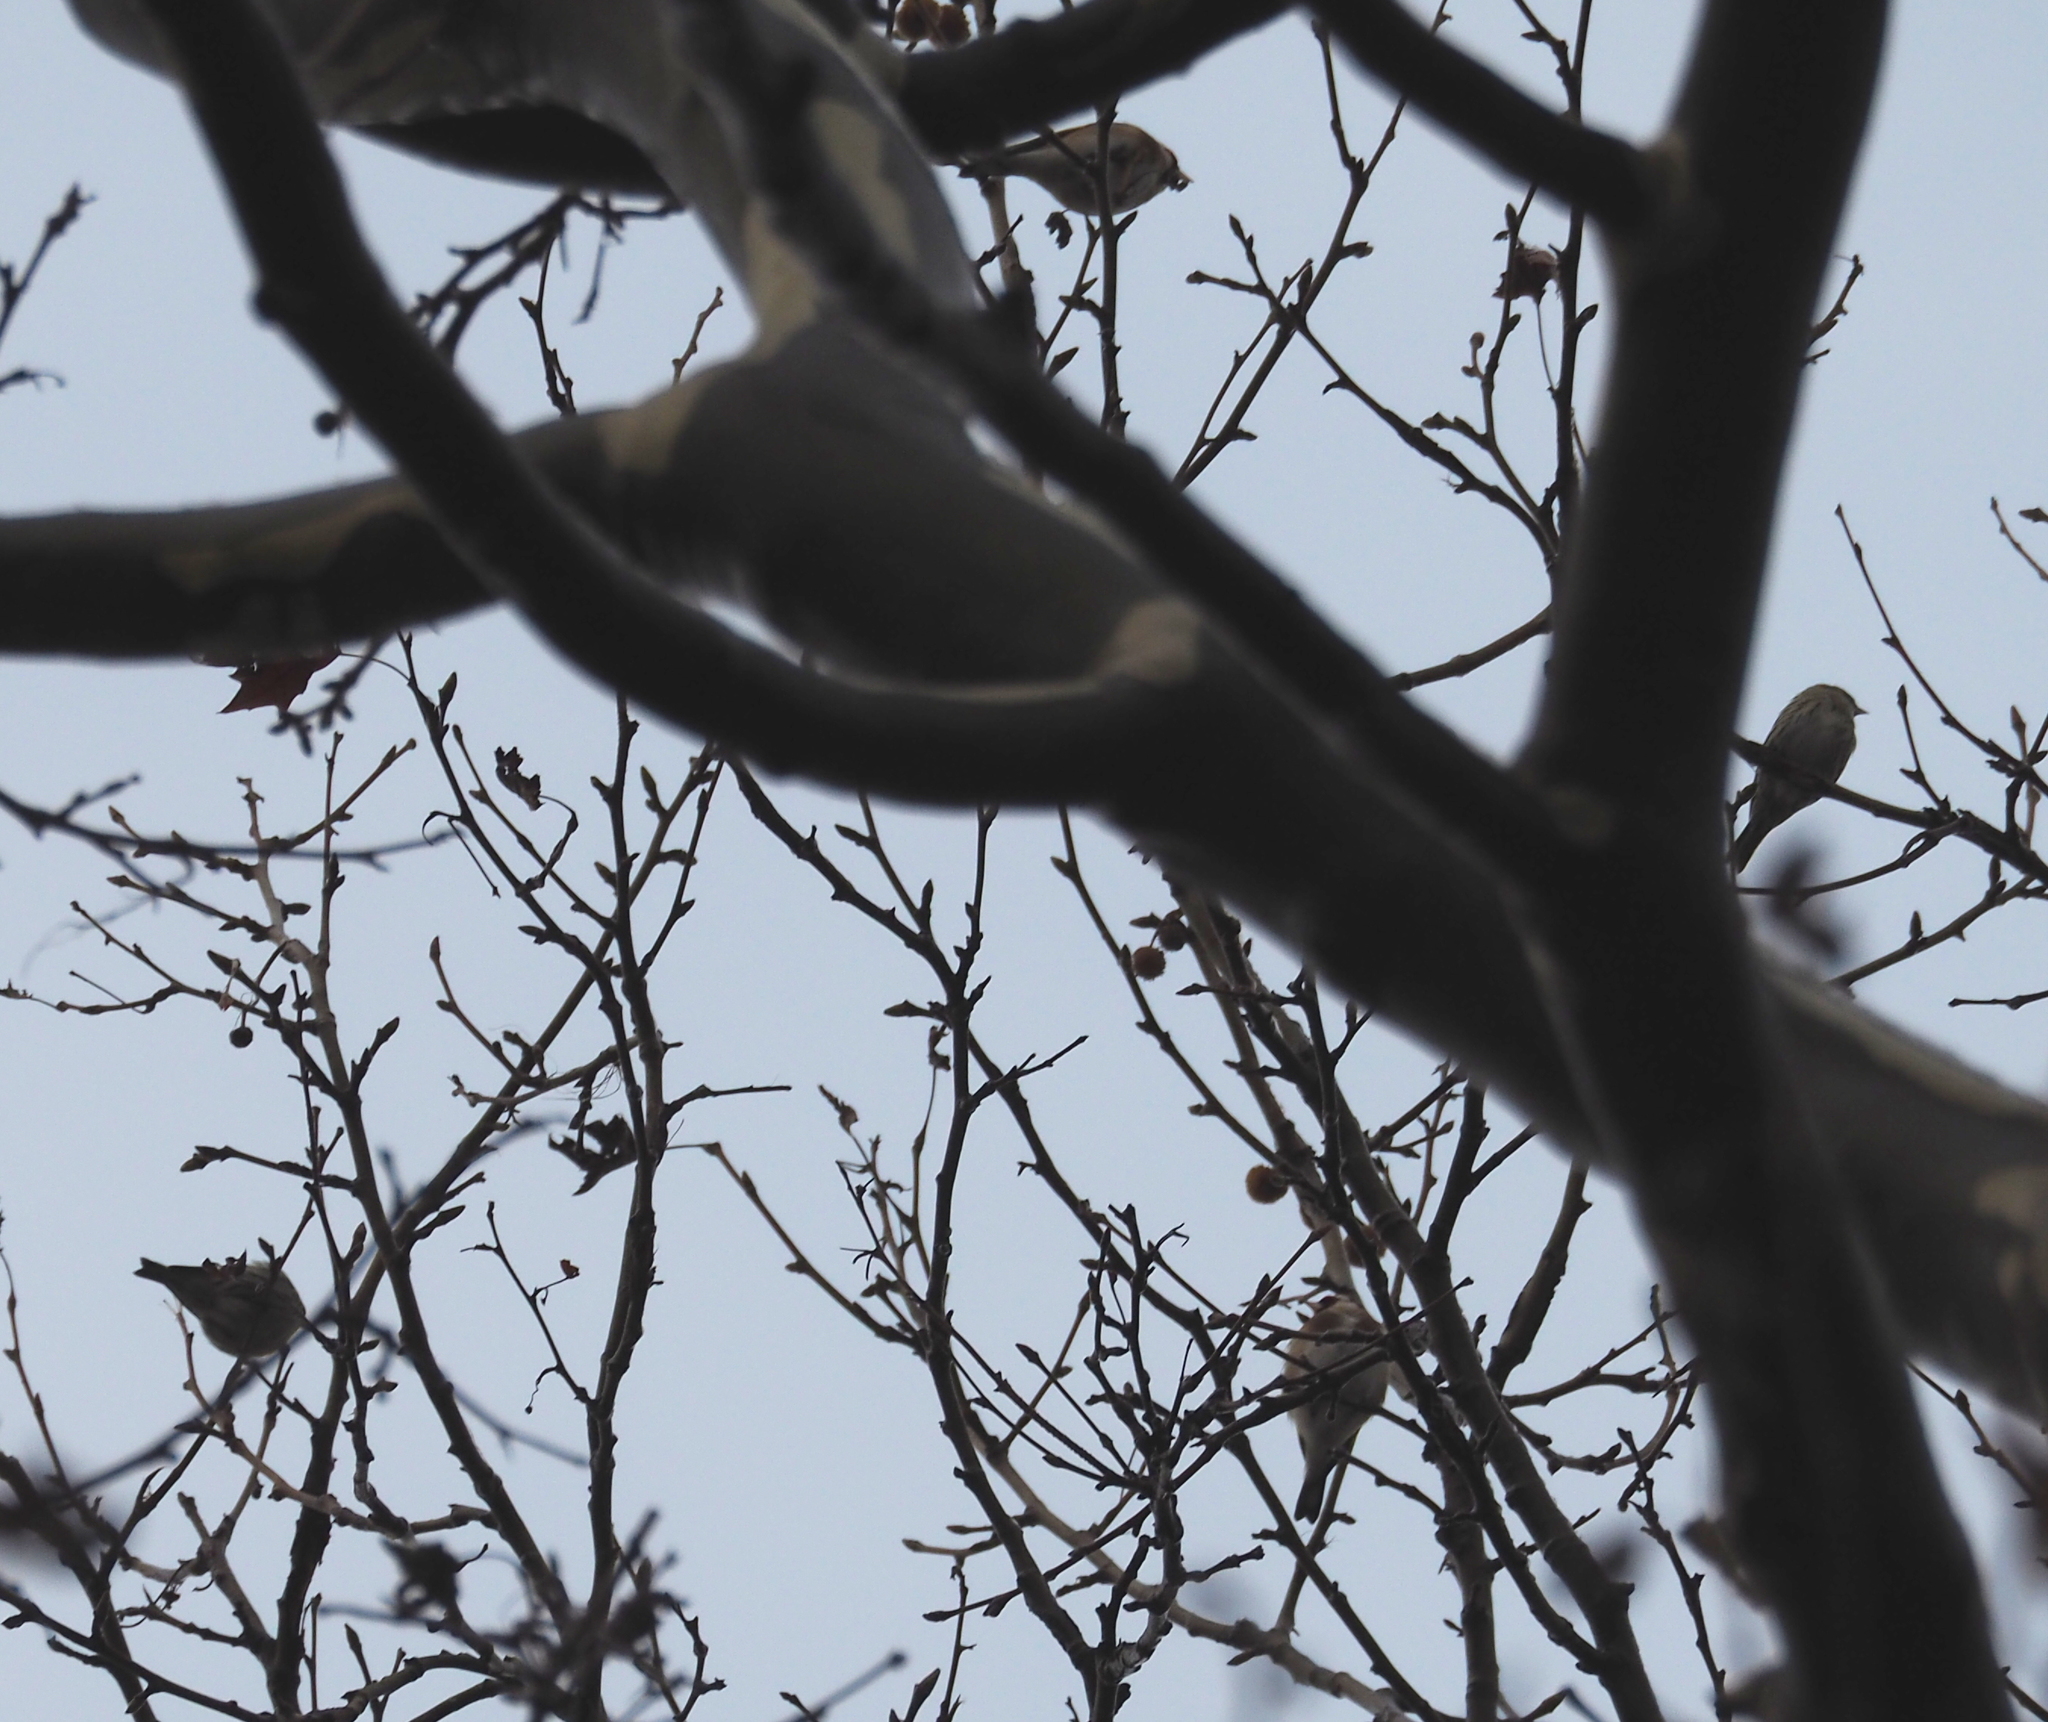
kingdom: Animalia
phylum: Chordata
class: Aves
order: Passeriformes
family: Fringillidae
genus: Spinus
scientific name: Spinus spinus
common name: Eurasian siskin
